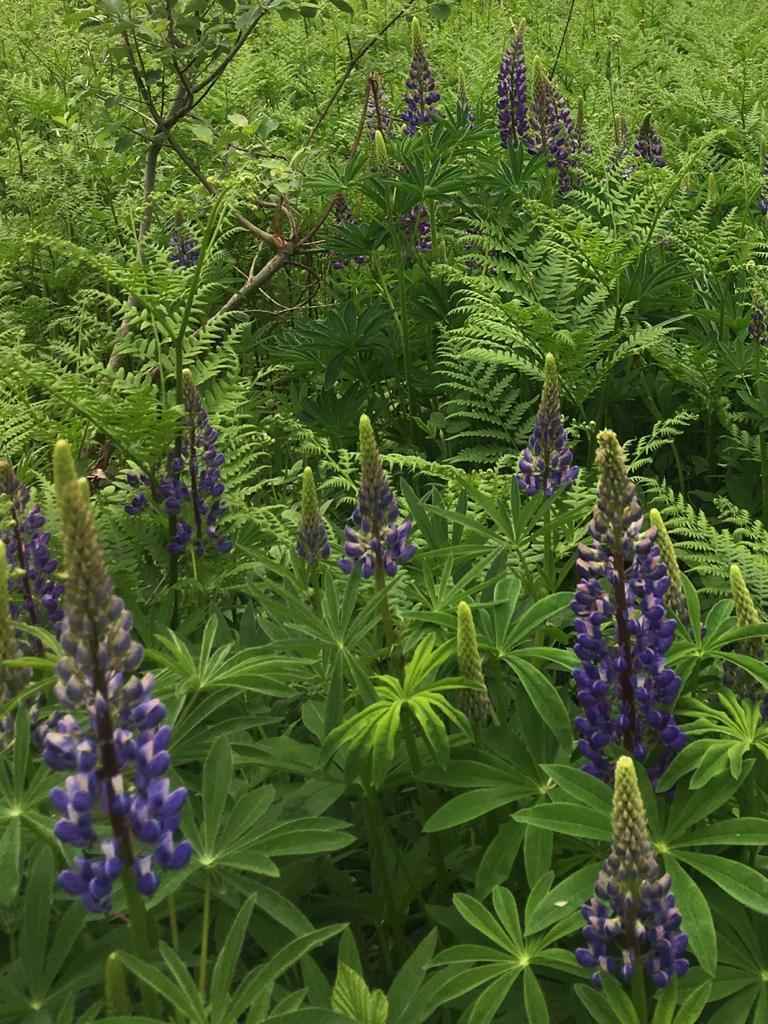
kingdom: Plantae
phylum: Tracheophyta
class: Magnoliopsida
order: Fabales
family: Fabaceae
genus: Lupinus
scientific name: Lupinus polyphyllus
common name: Garden lupin
